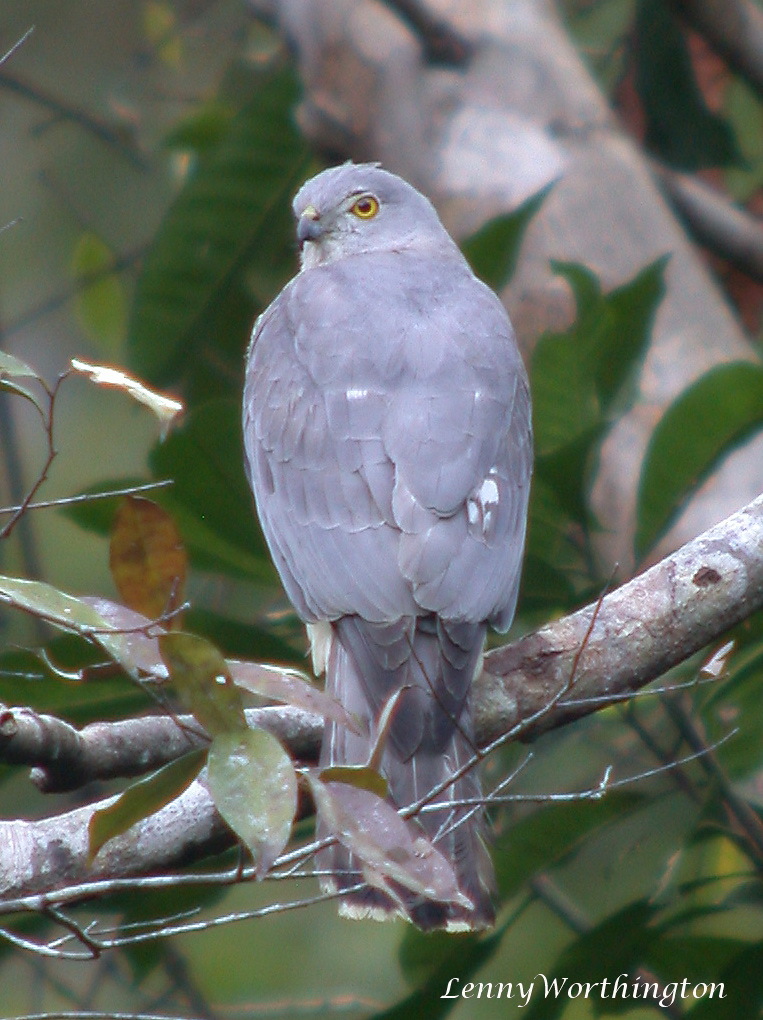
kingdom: Animalia
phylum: Chordata
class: Aves
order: Accipitriformes
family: Accipitridae
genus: Accipiter
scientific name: Accipiter badius
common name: Shikra
